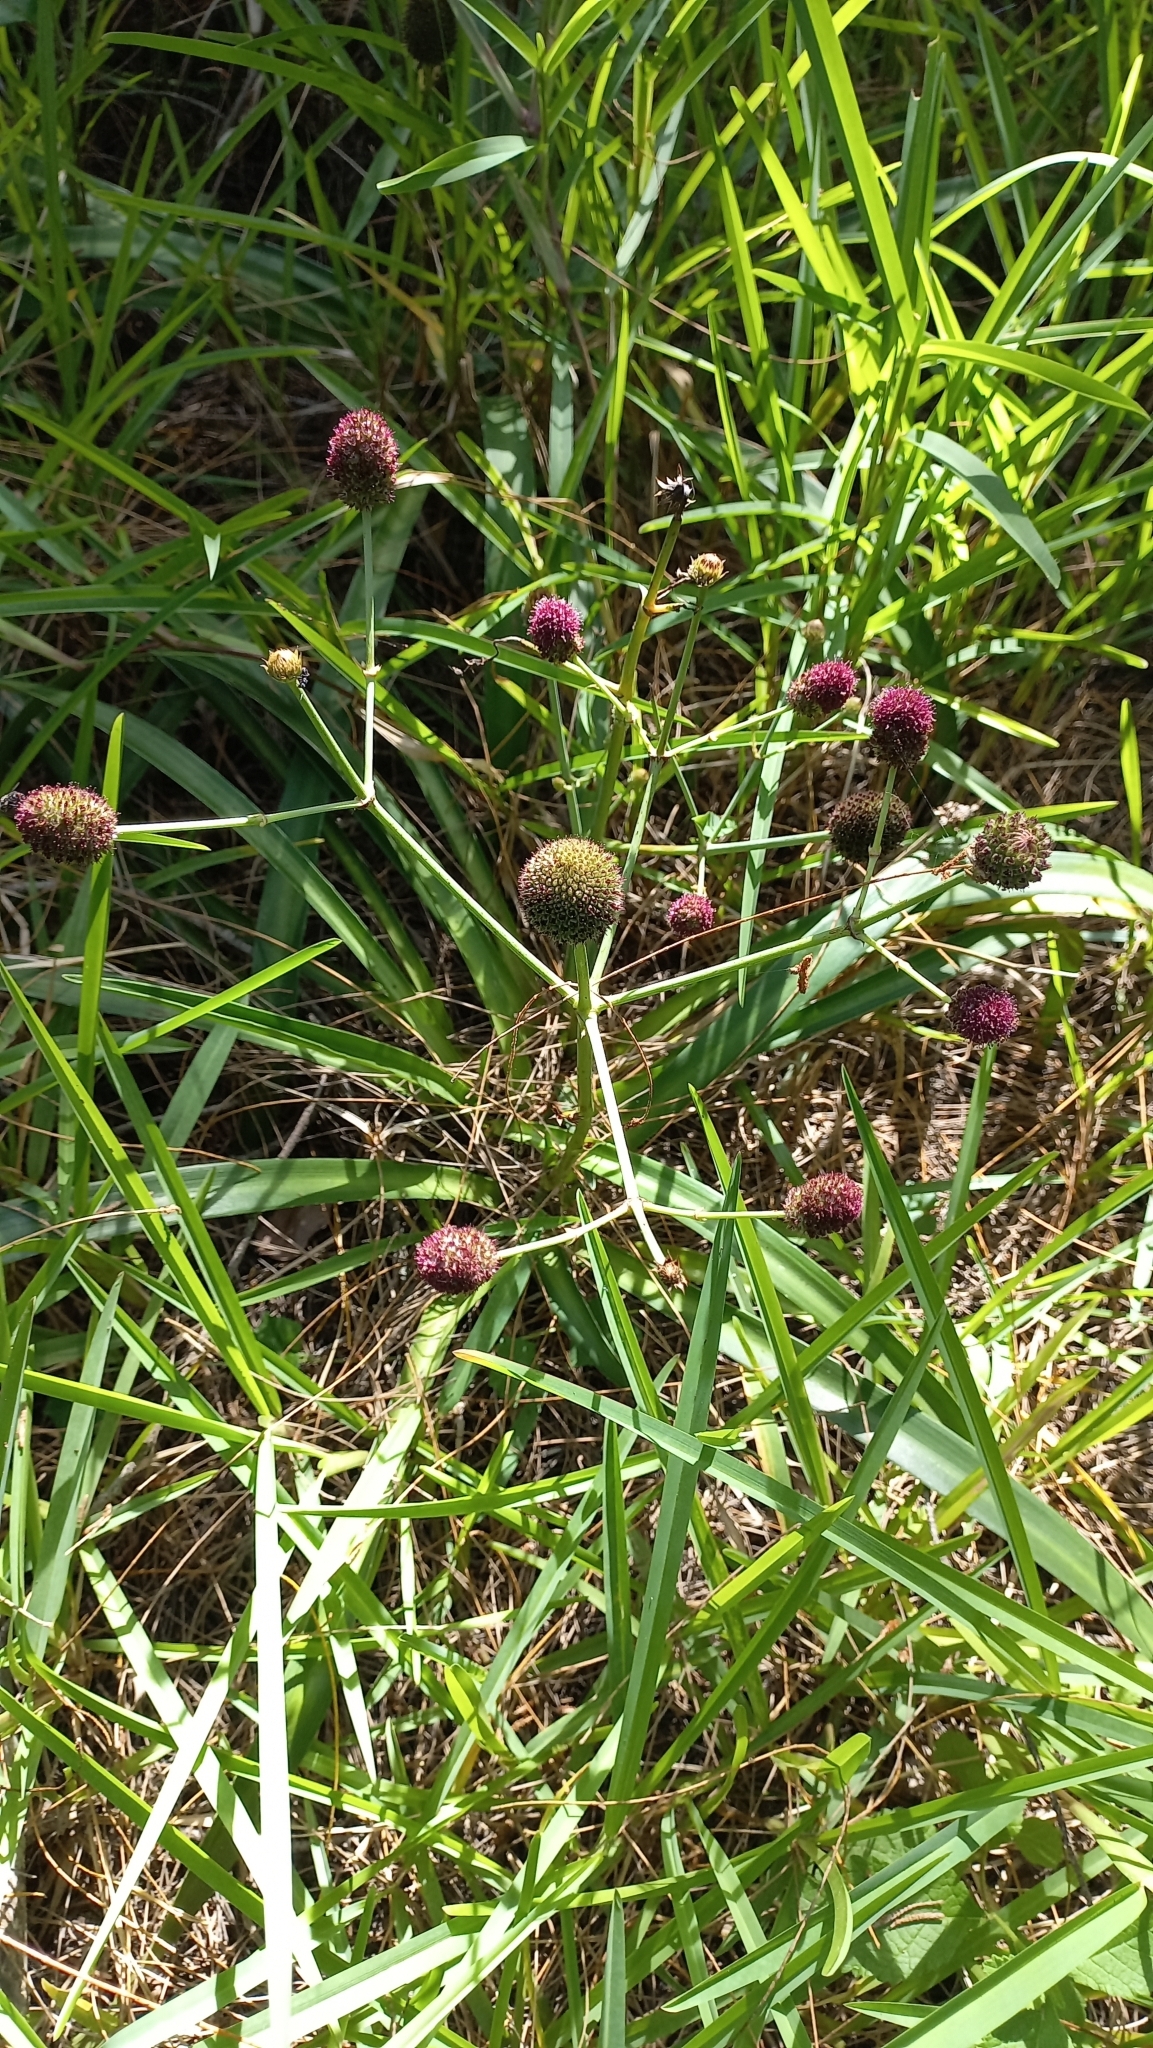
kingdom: Plantae
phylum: Tracheophyta
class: Magnoliopsida
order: Apiales
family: Apiaceae
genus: Eryngium
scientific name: Eryngium sanguisorba
